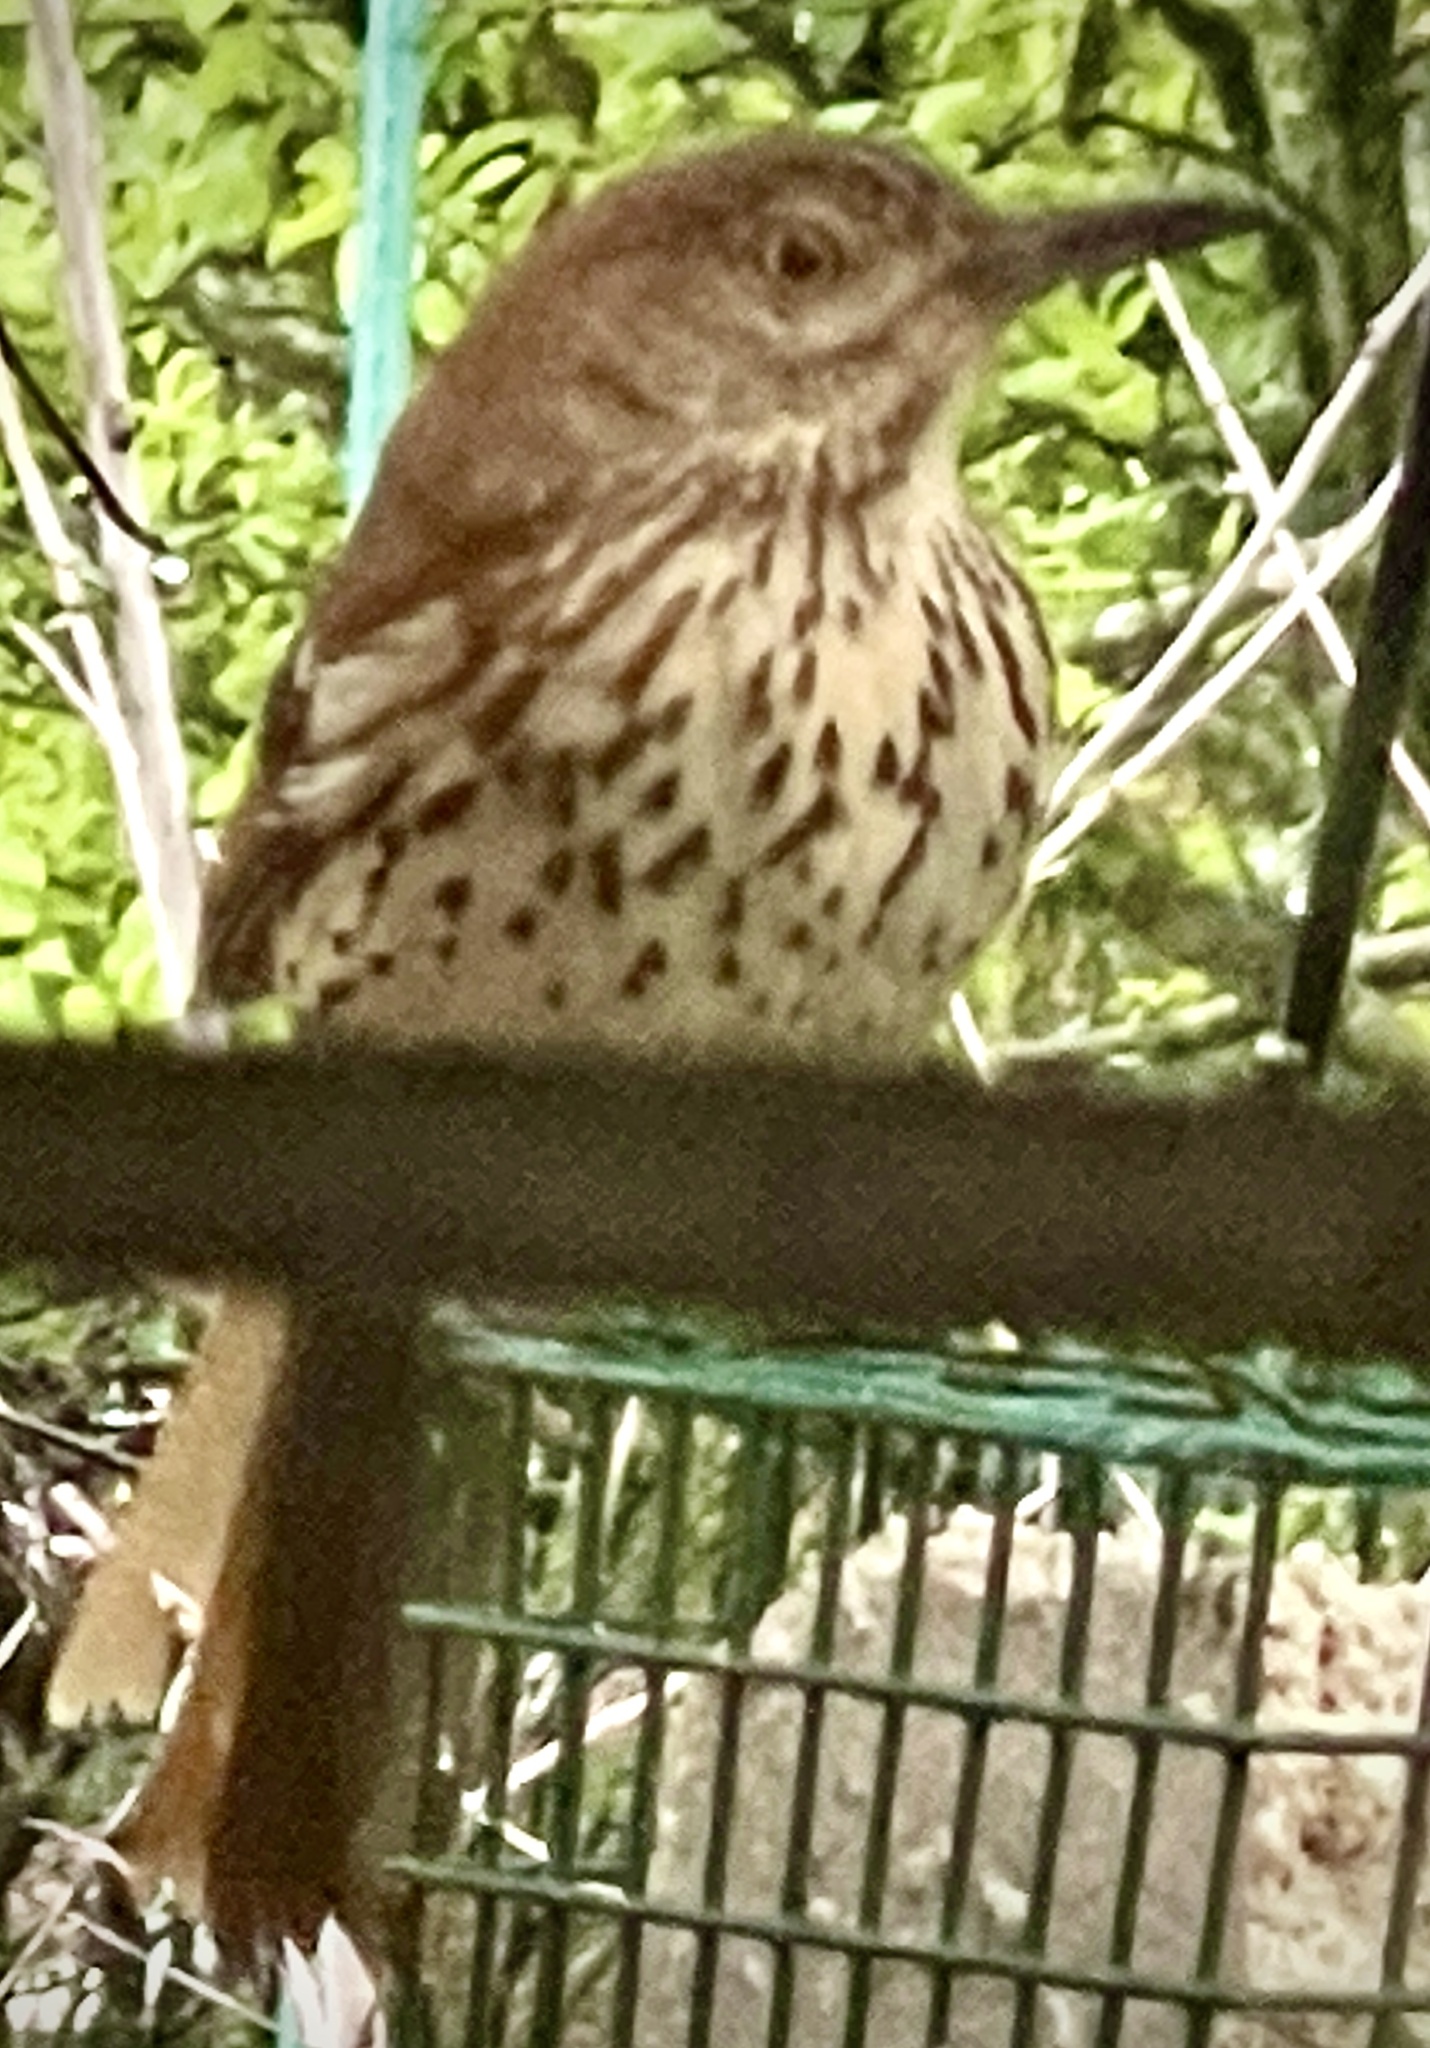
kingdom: Animalia
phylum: Chordata
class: Aves
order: Passeriformes
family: Mimidae
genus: Toxostoma
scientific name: Toxostoma rufum
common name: Brown thrasher
